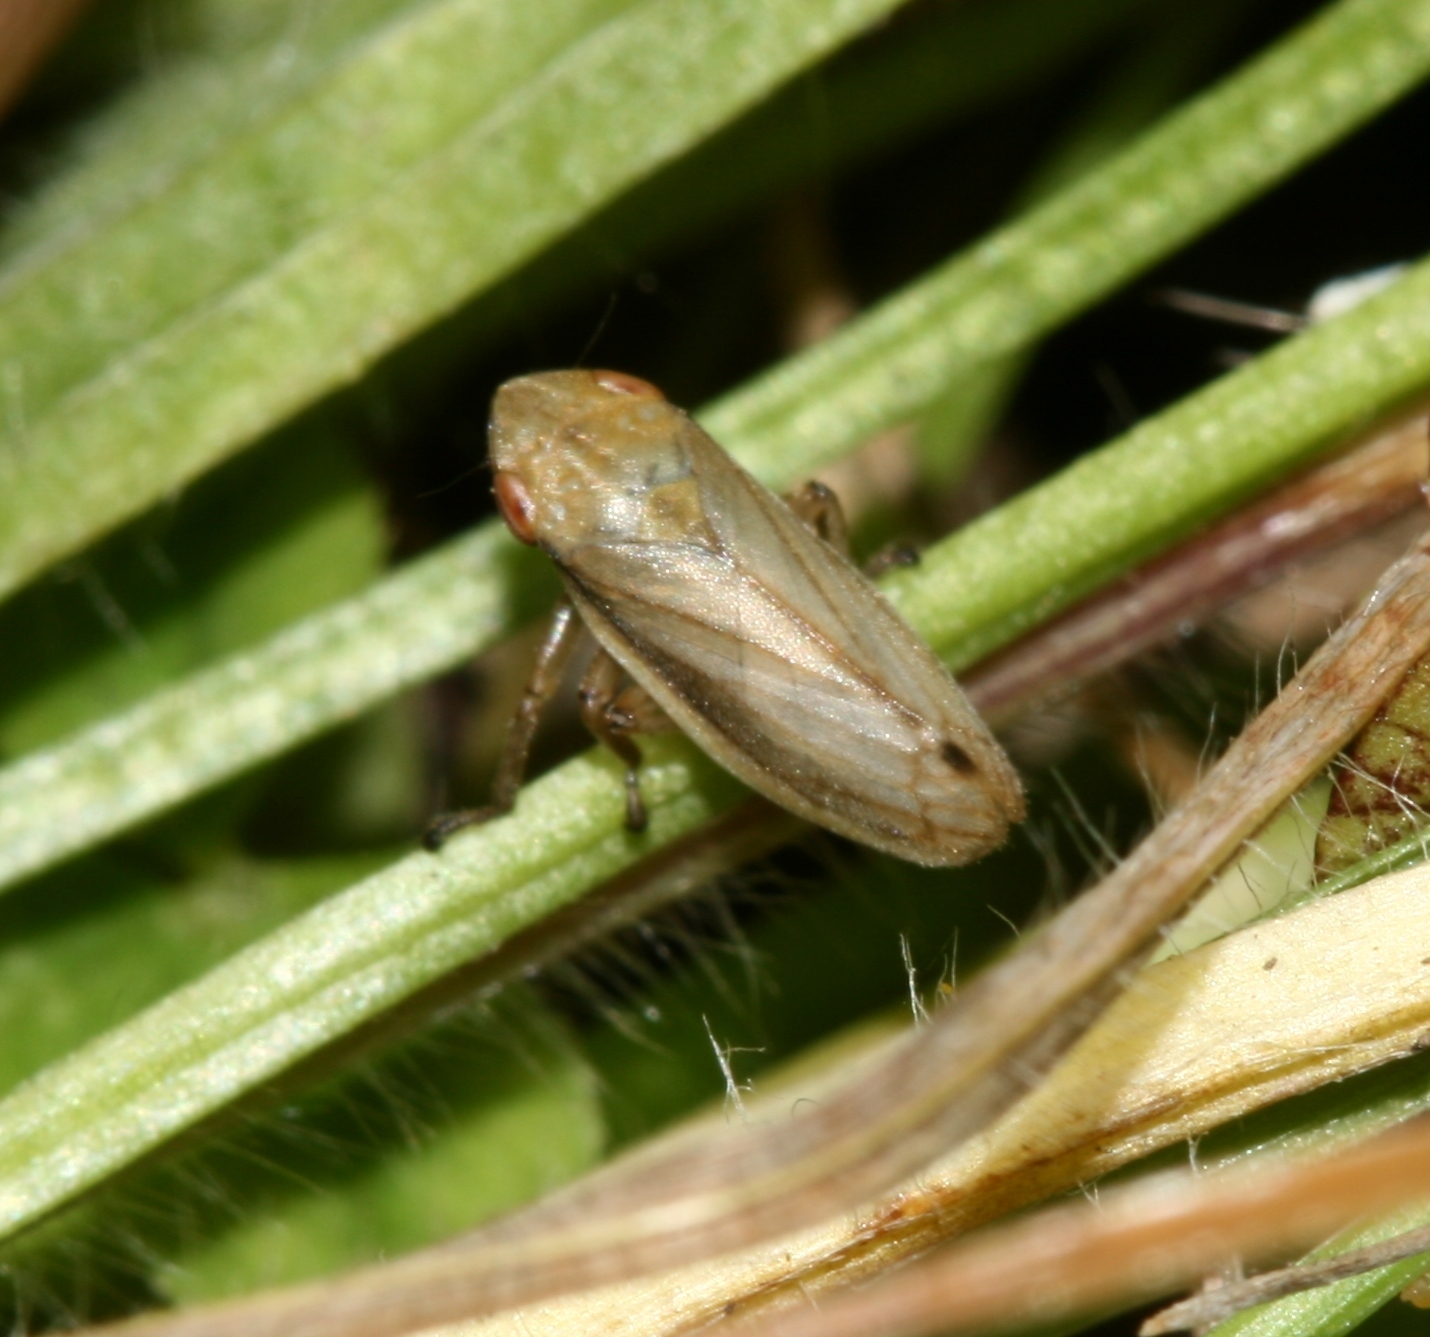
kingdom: Animalia
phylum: Arthropoda
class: Insecta
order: Hemiptera
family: Aphrophoridae
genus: Neophilaenus
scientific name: Neophilaenus lineatus
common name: Spittlebug
